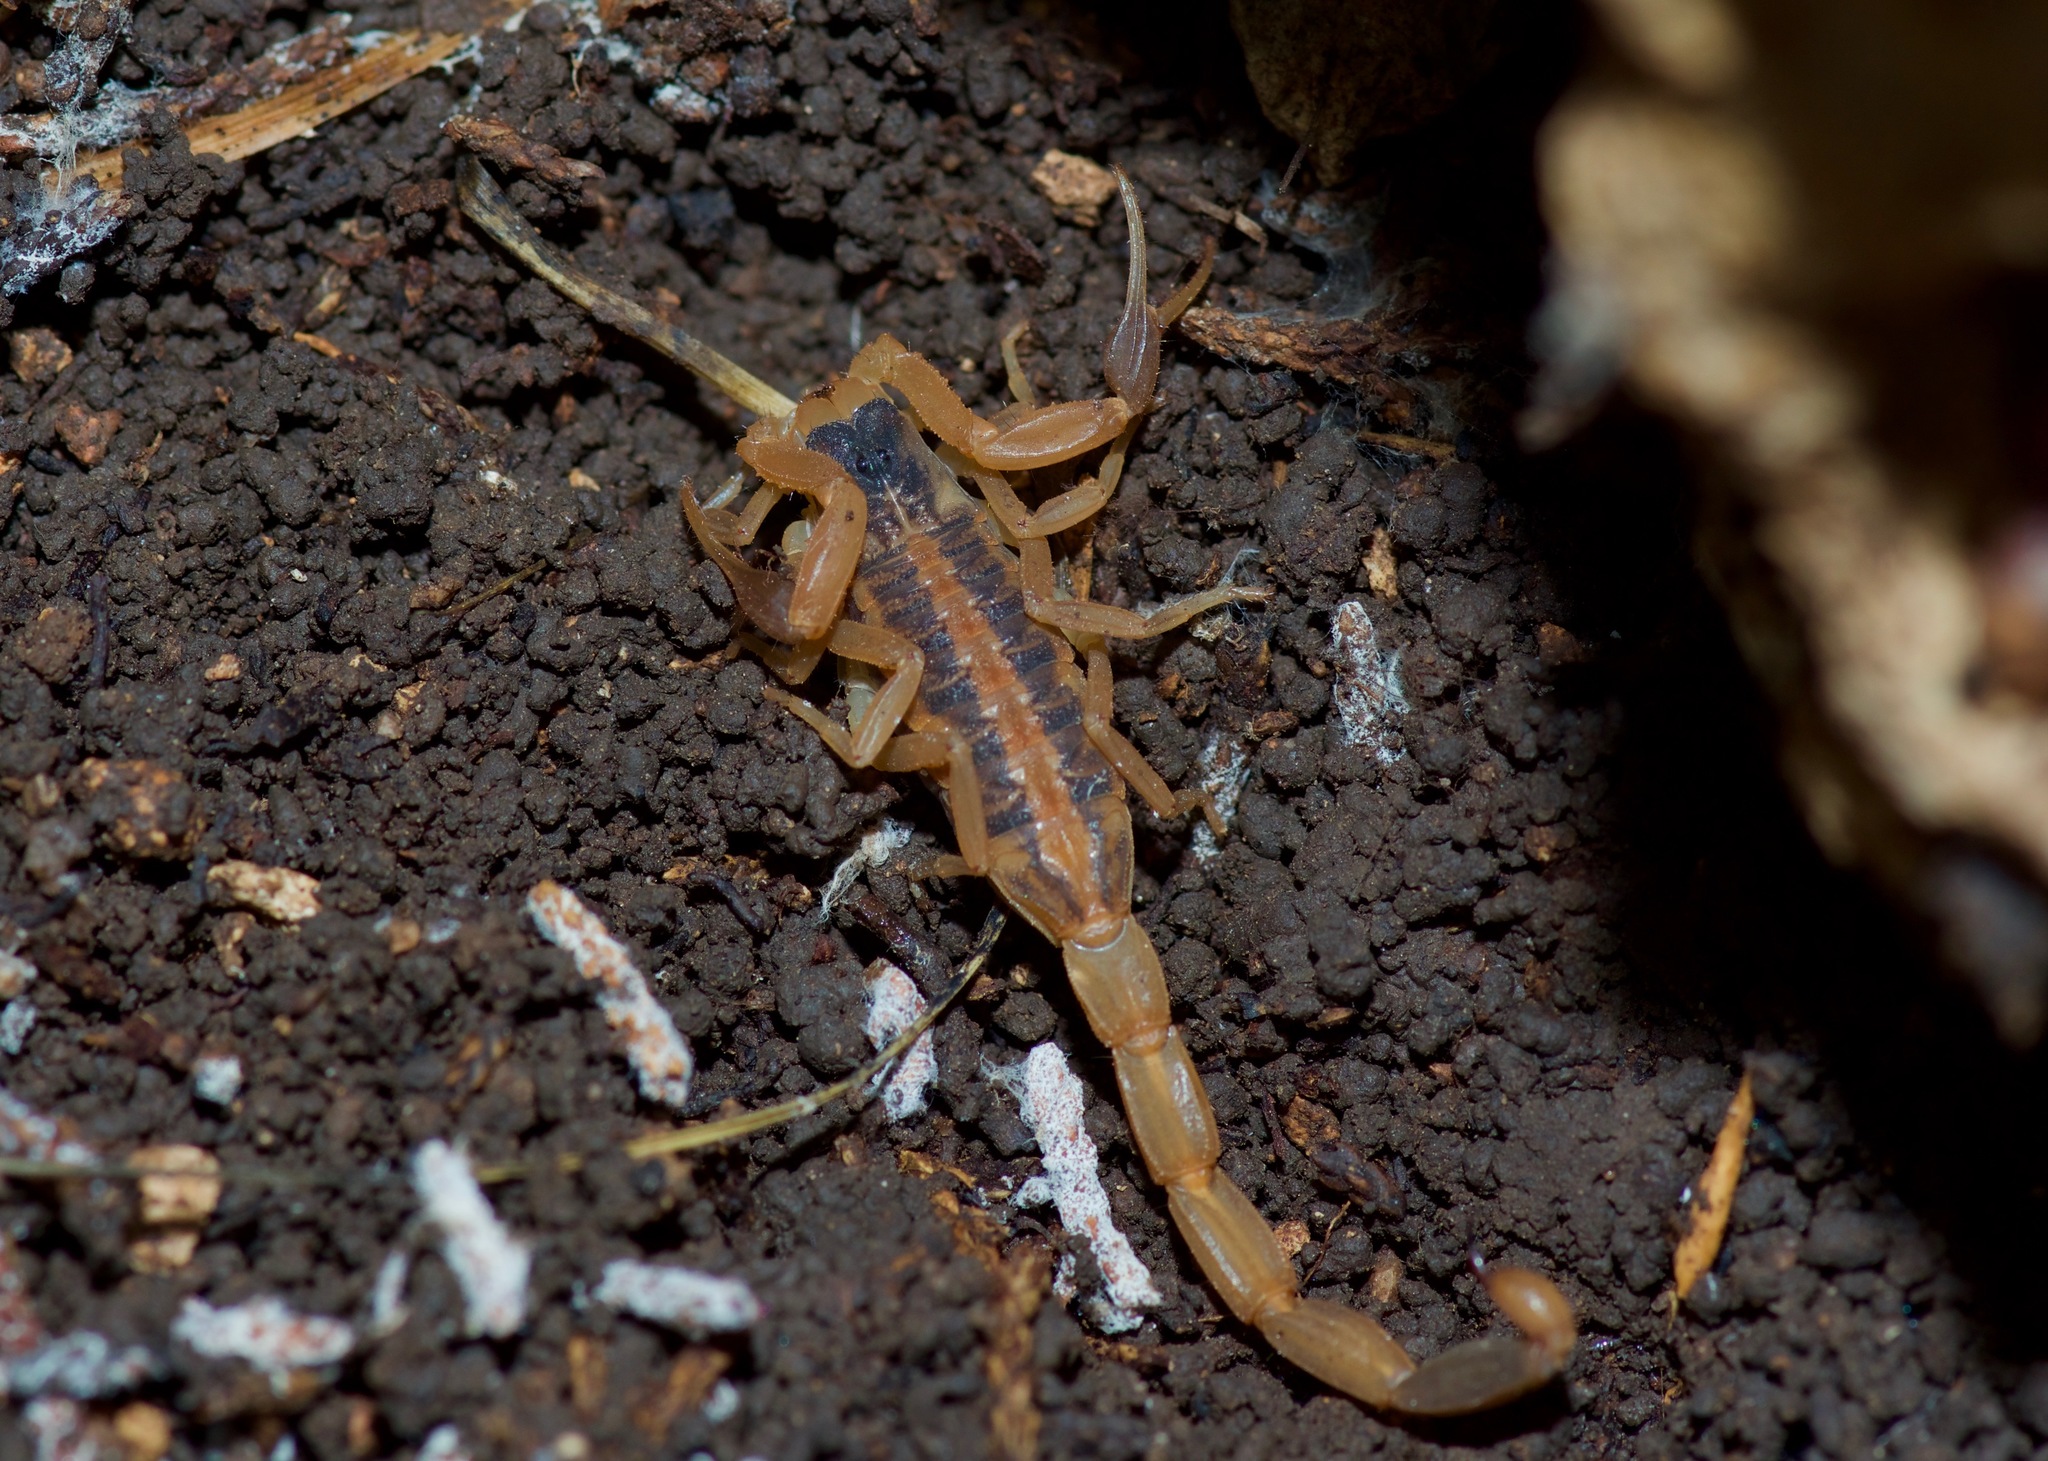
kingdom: Animalia
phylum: Arthropoda
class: Arachnida
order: Scorpiones
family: Buthidae
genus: Centruroides
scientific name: Centruroides vittatus
